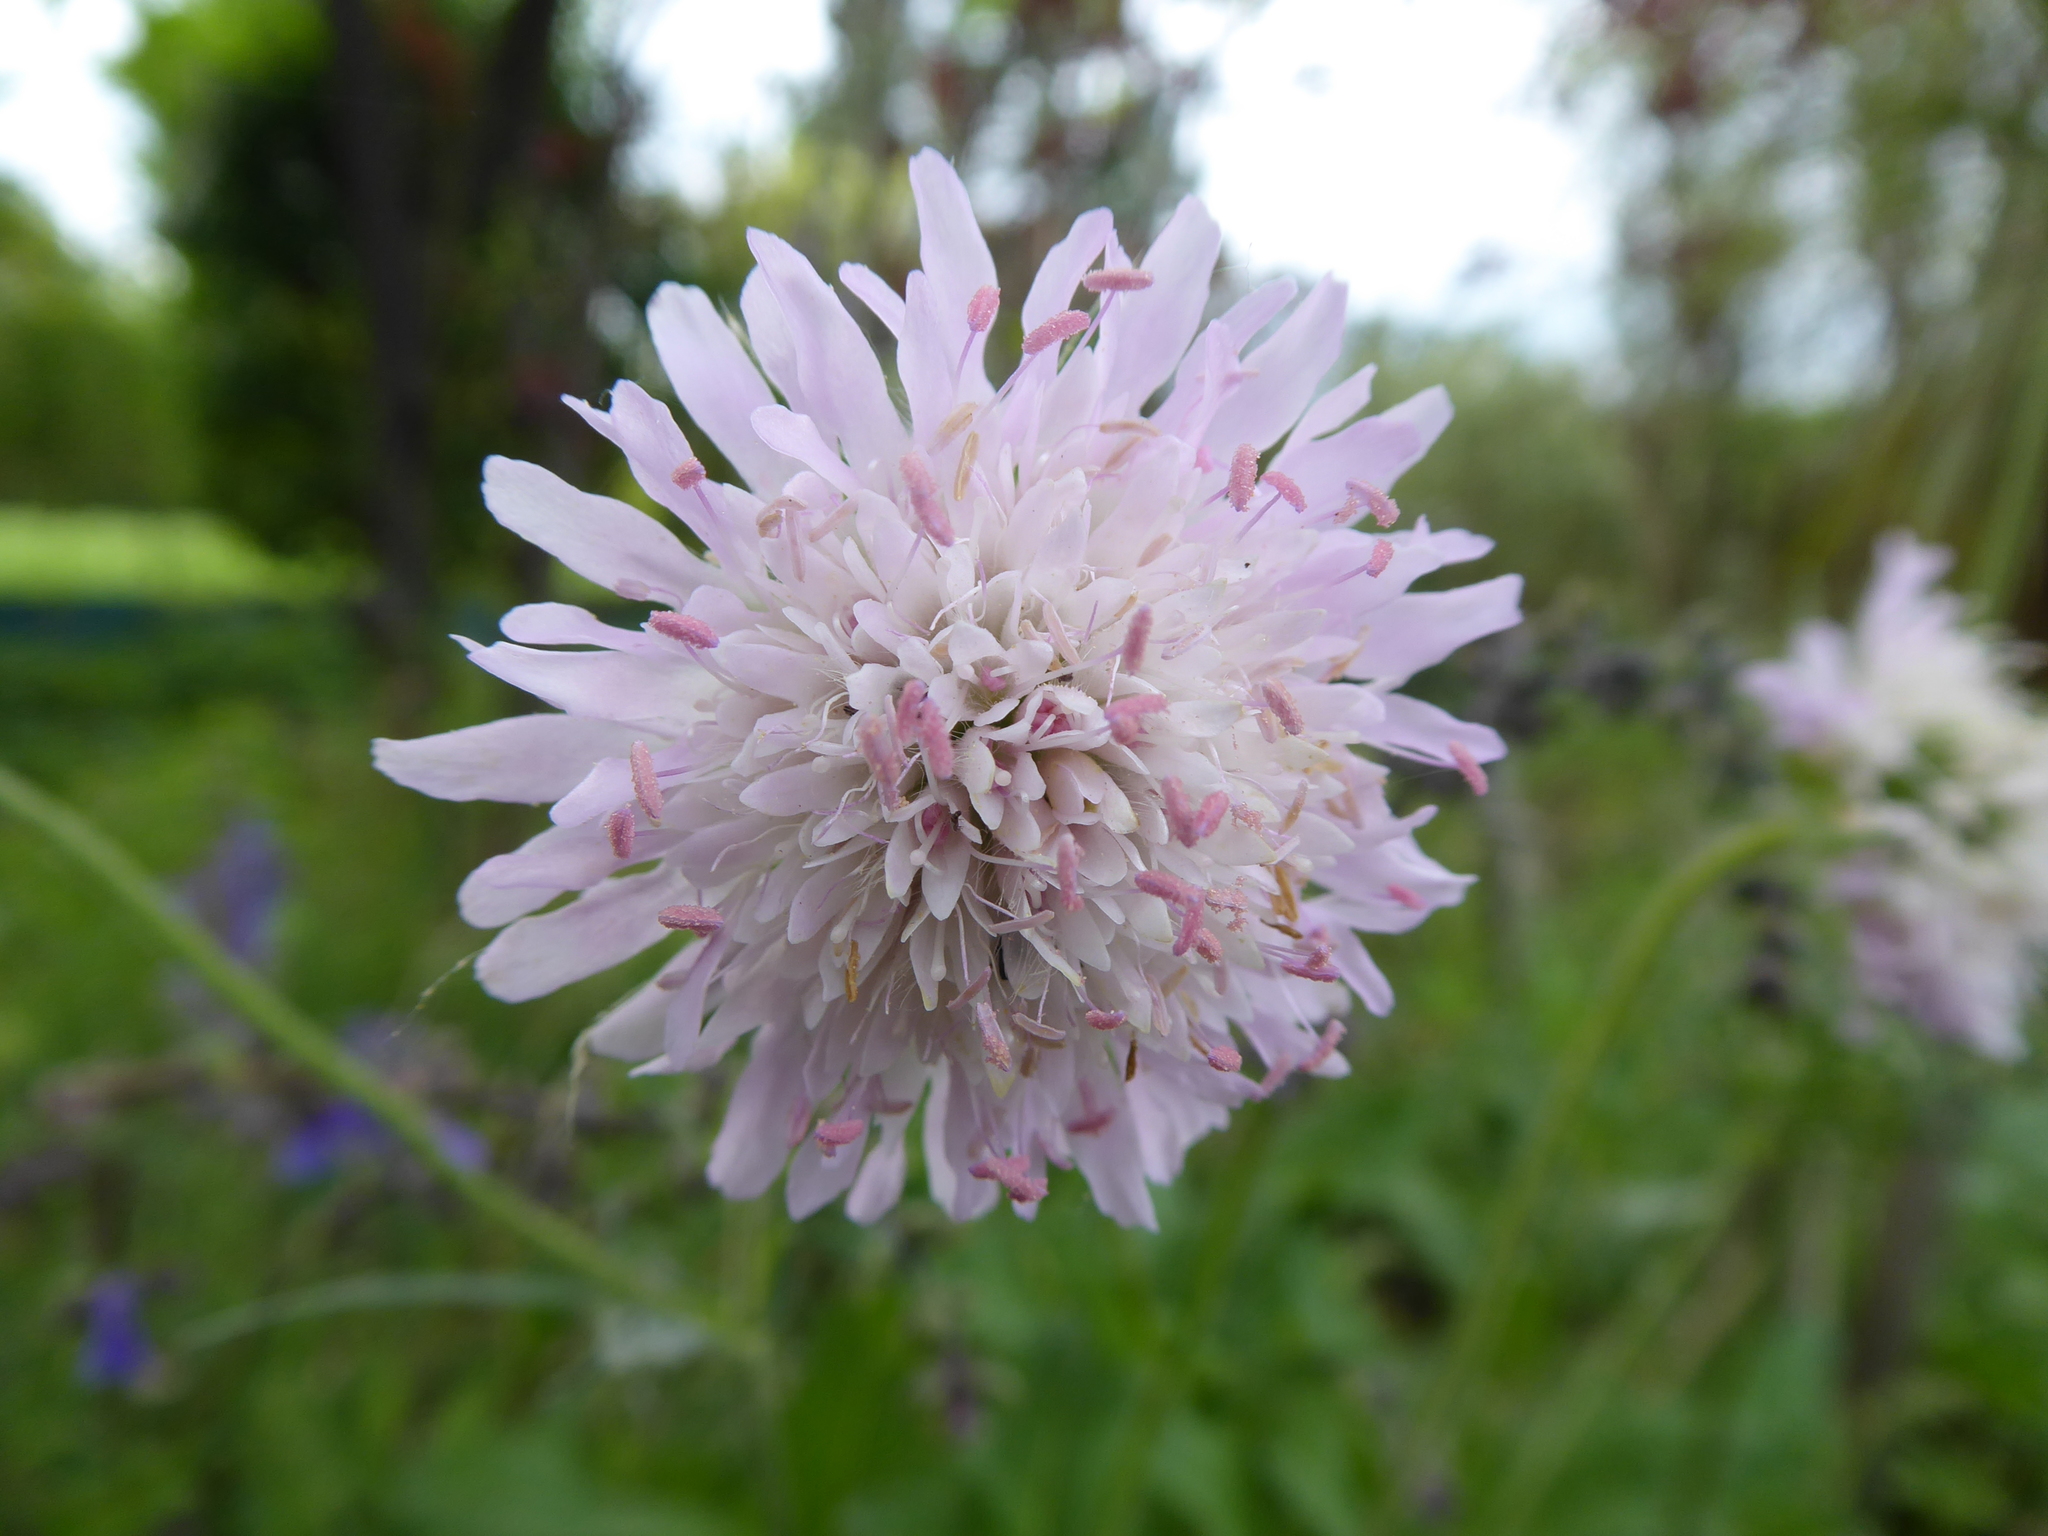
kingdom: Plantae
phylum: Tracheophyta
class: Magnoliopsida
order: Dipsacales
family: Caprifoliaceae
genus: Knautia
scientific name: Knautia arvensis
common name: Field scabiosa
